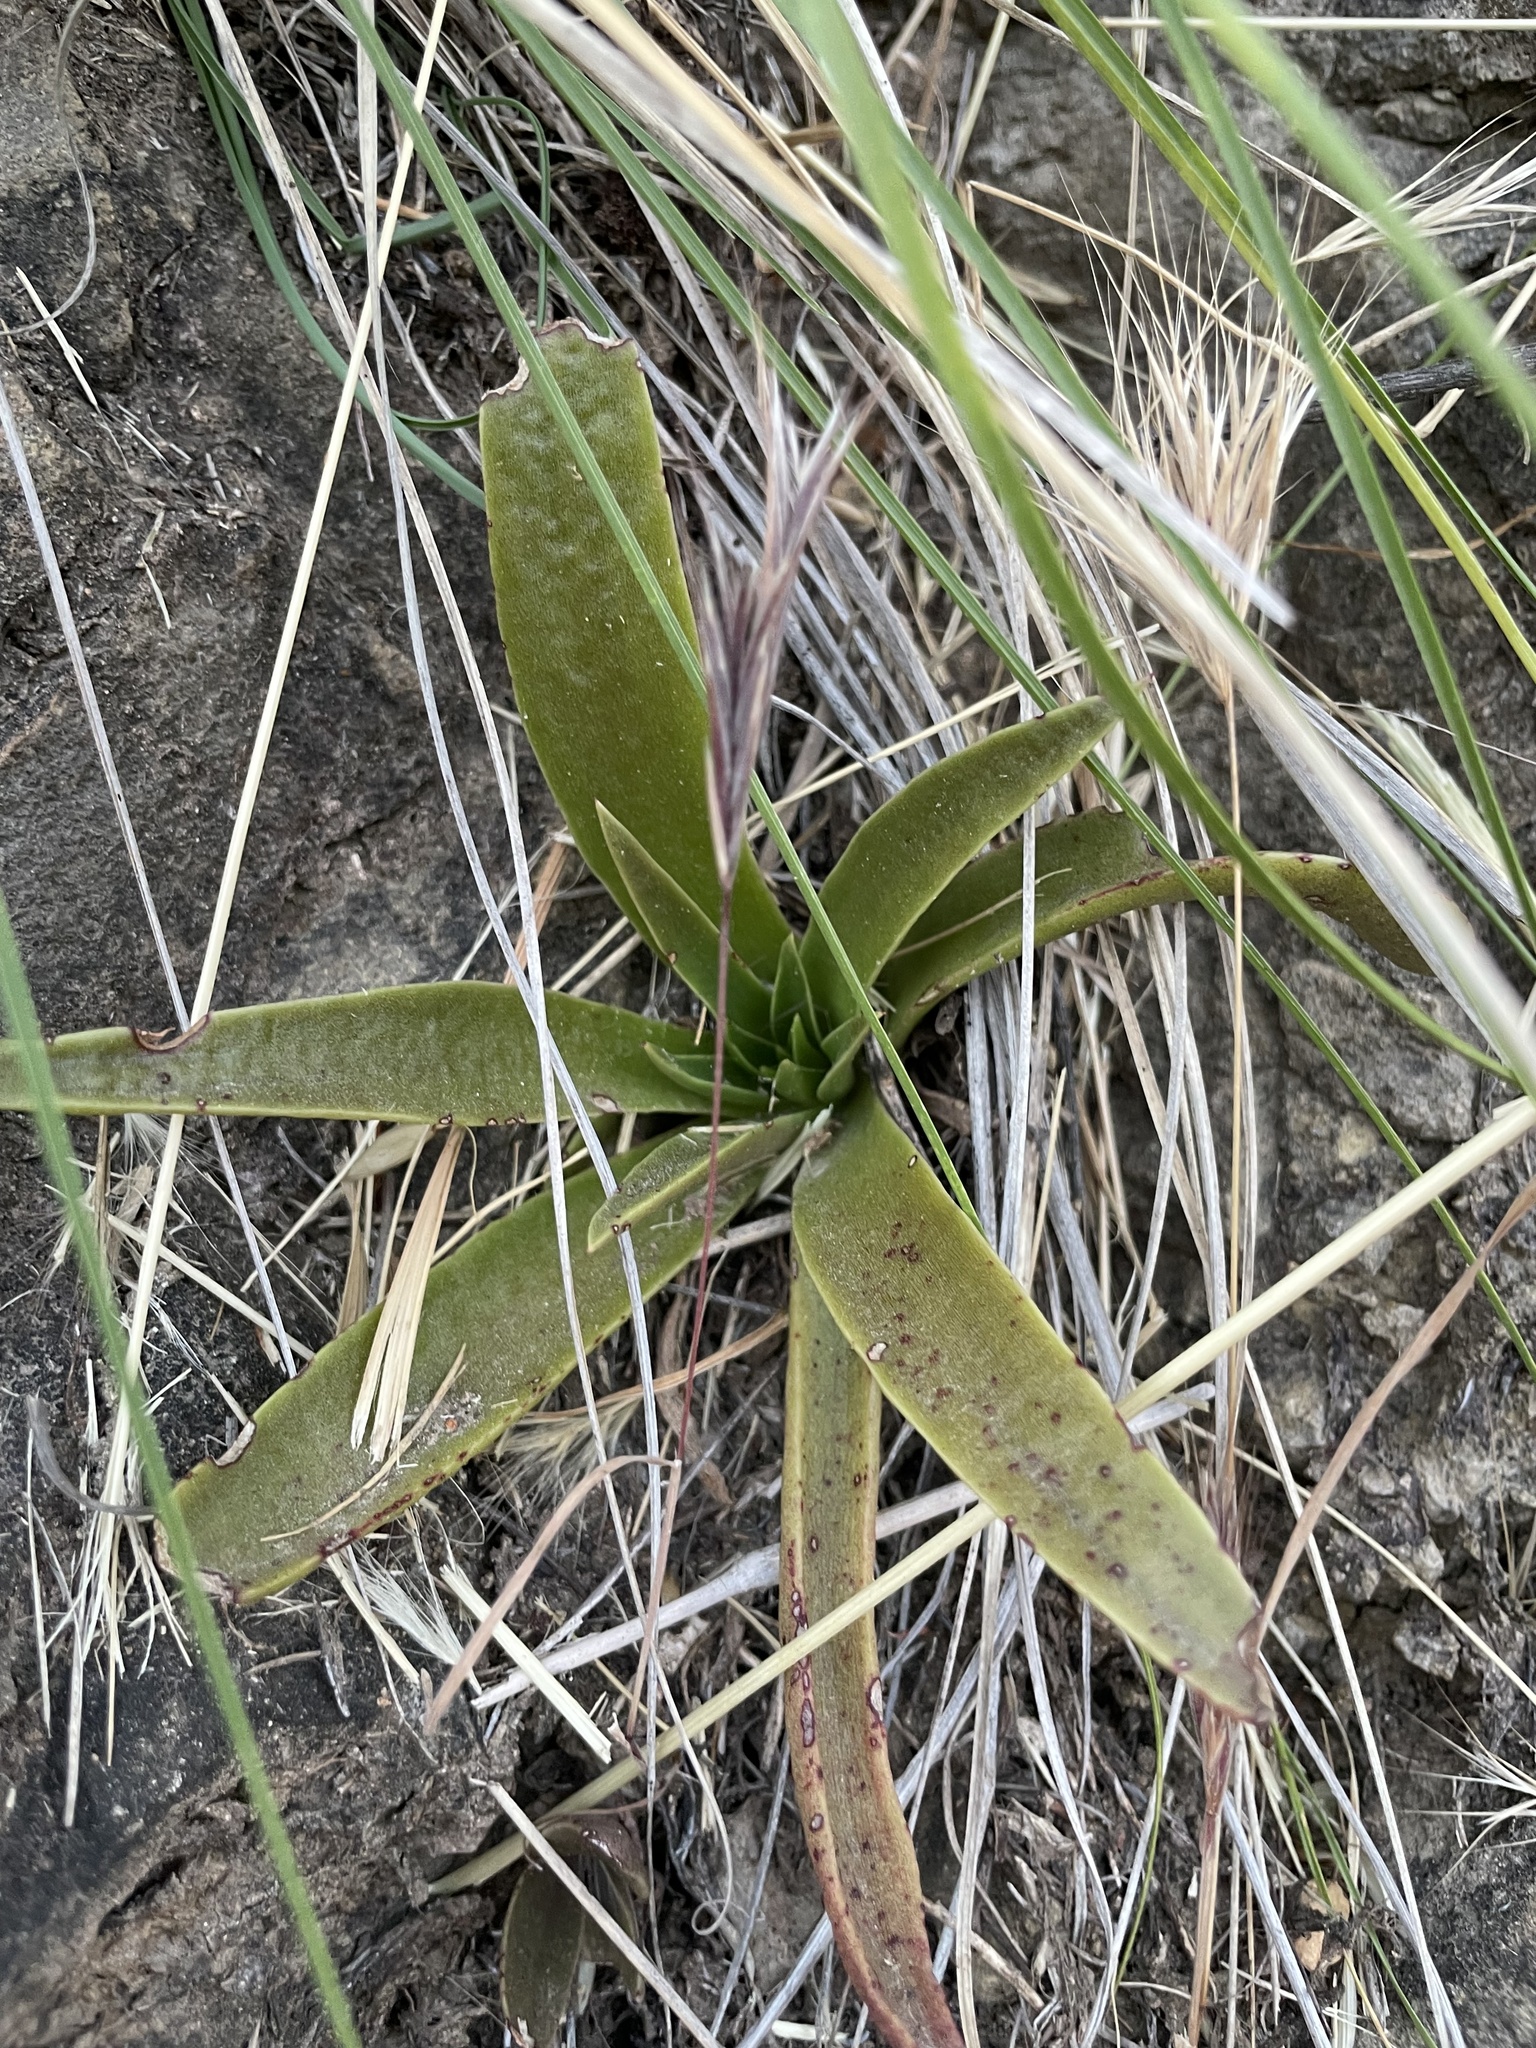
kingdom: Plantae
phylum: Tracheophyta
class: Magnoliopsida
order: Saxifragales
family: Crassulaceae
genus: Dudleya
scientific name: Dudleya lanceolata
